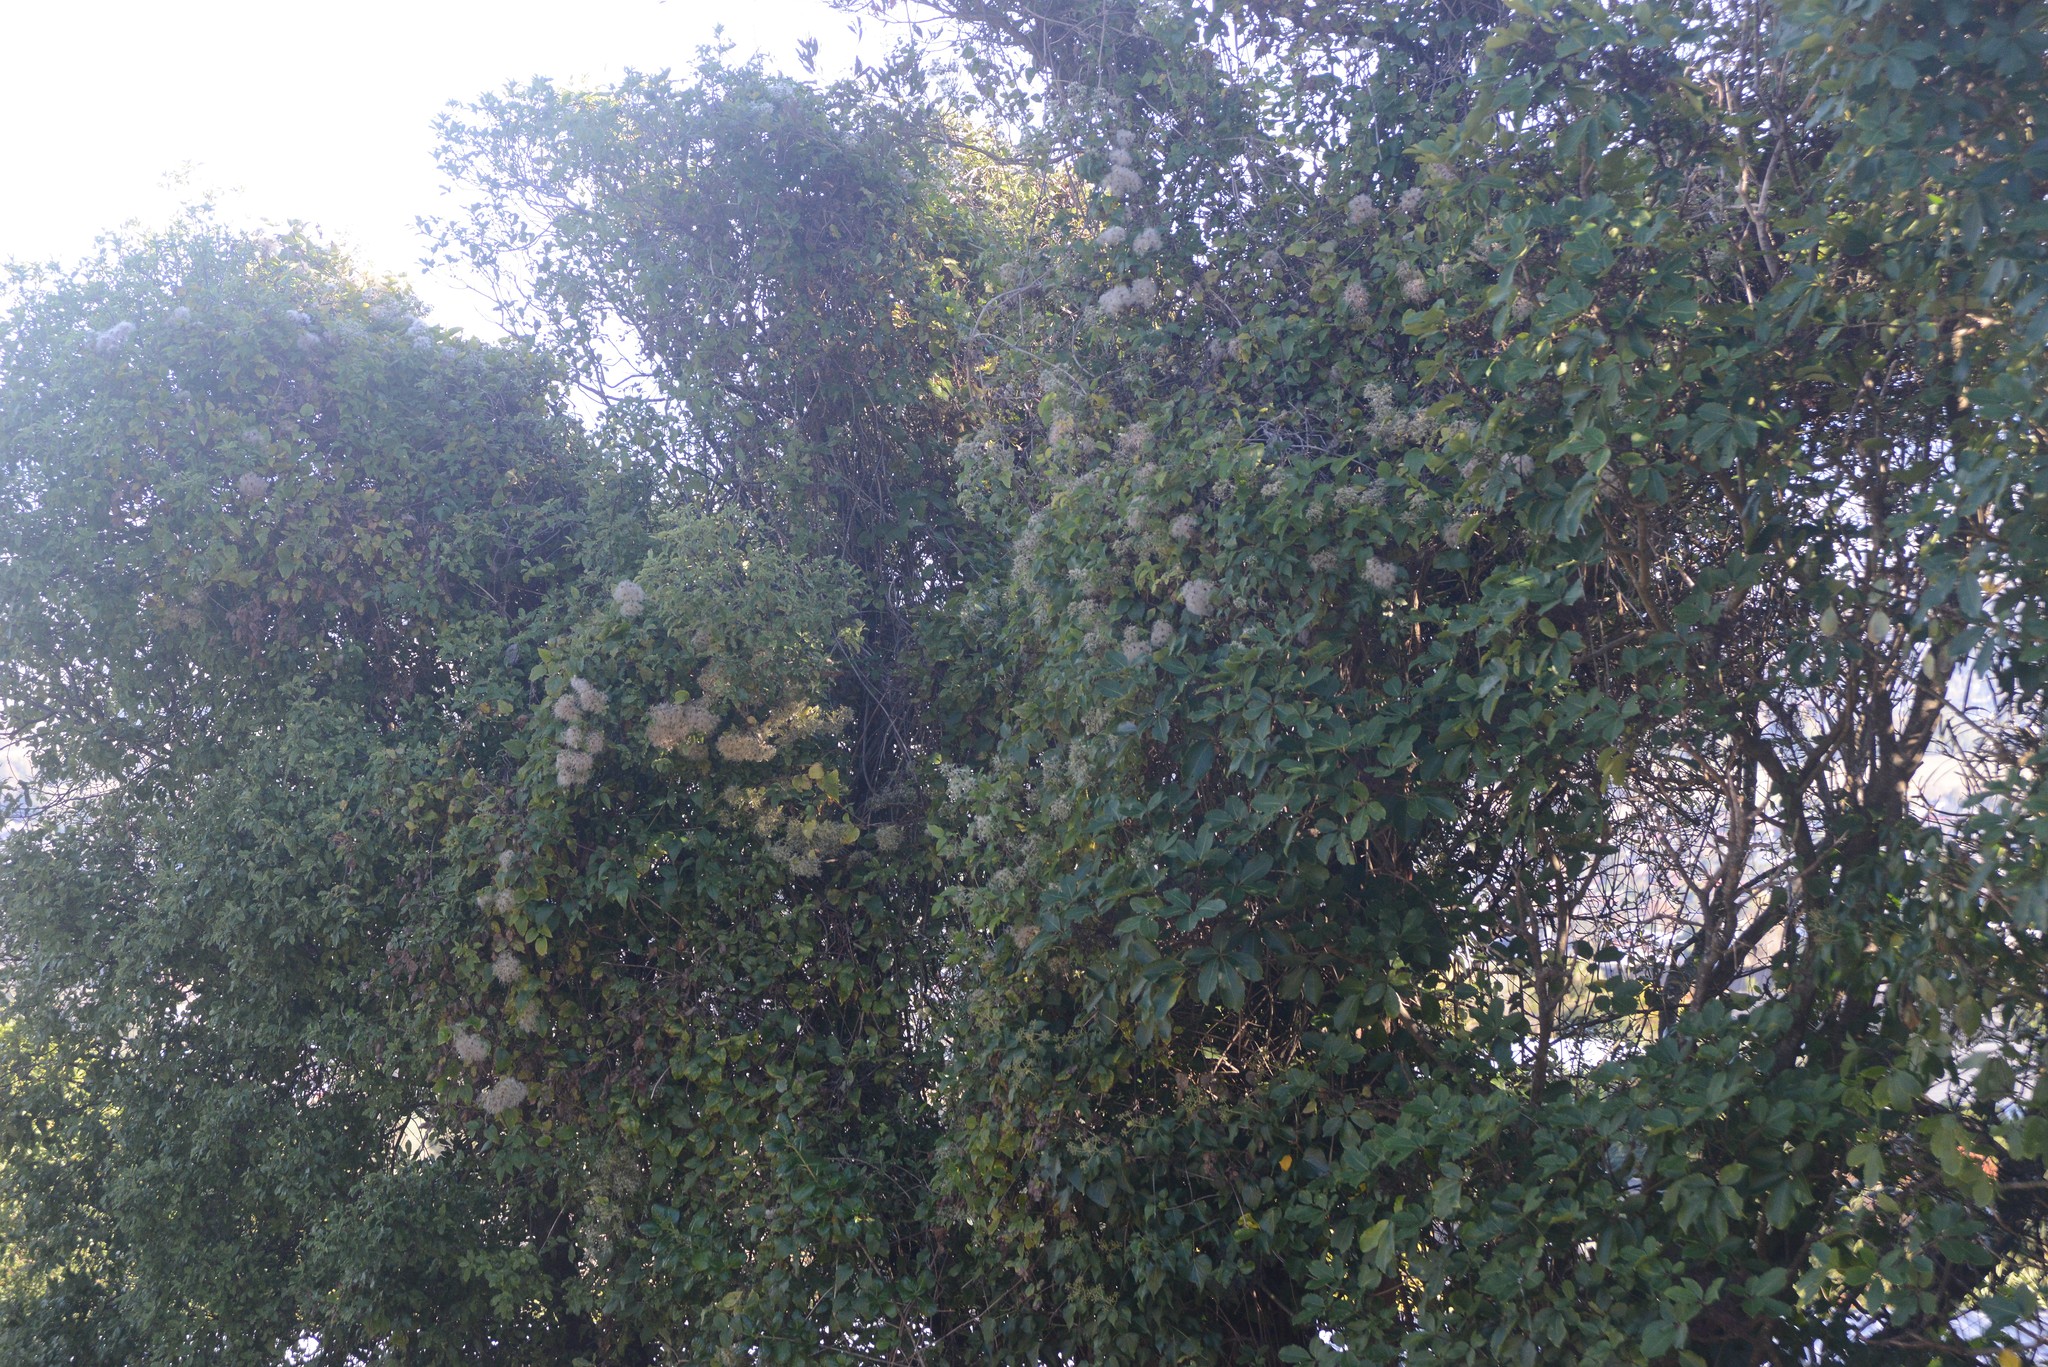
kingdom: Plantae
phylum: Tracheophyta
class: Magnoliopsida
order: Ranunculales
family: Ranunculaceae
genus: Clematis
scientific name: Clematis vitalba
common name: Evergreen clematis
